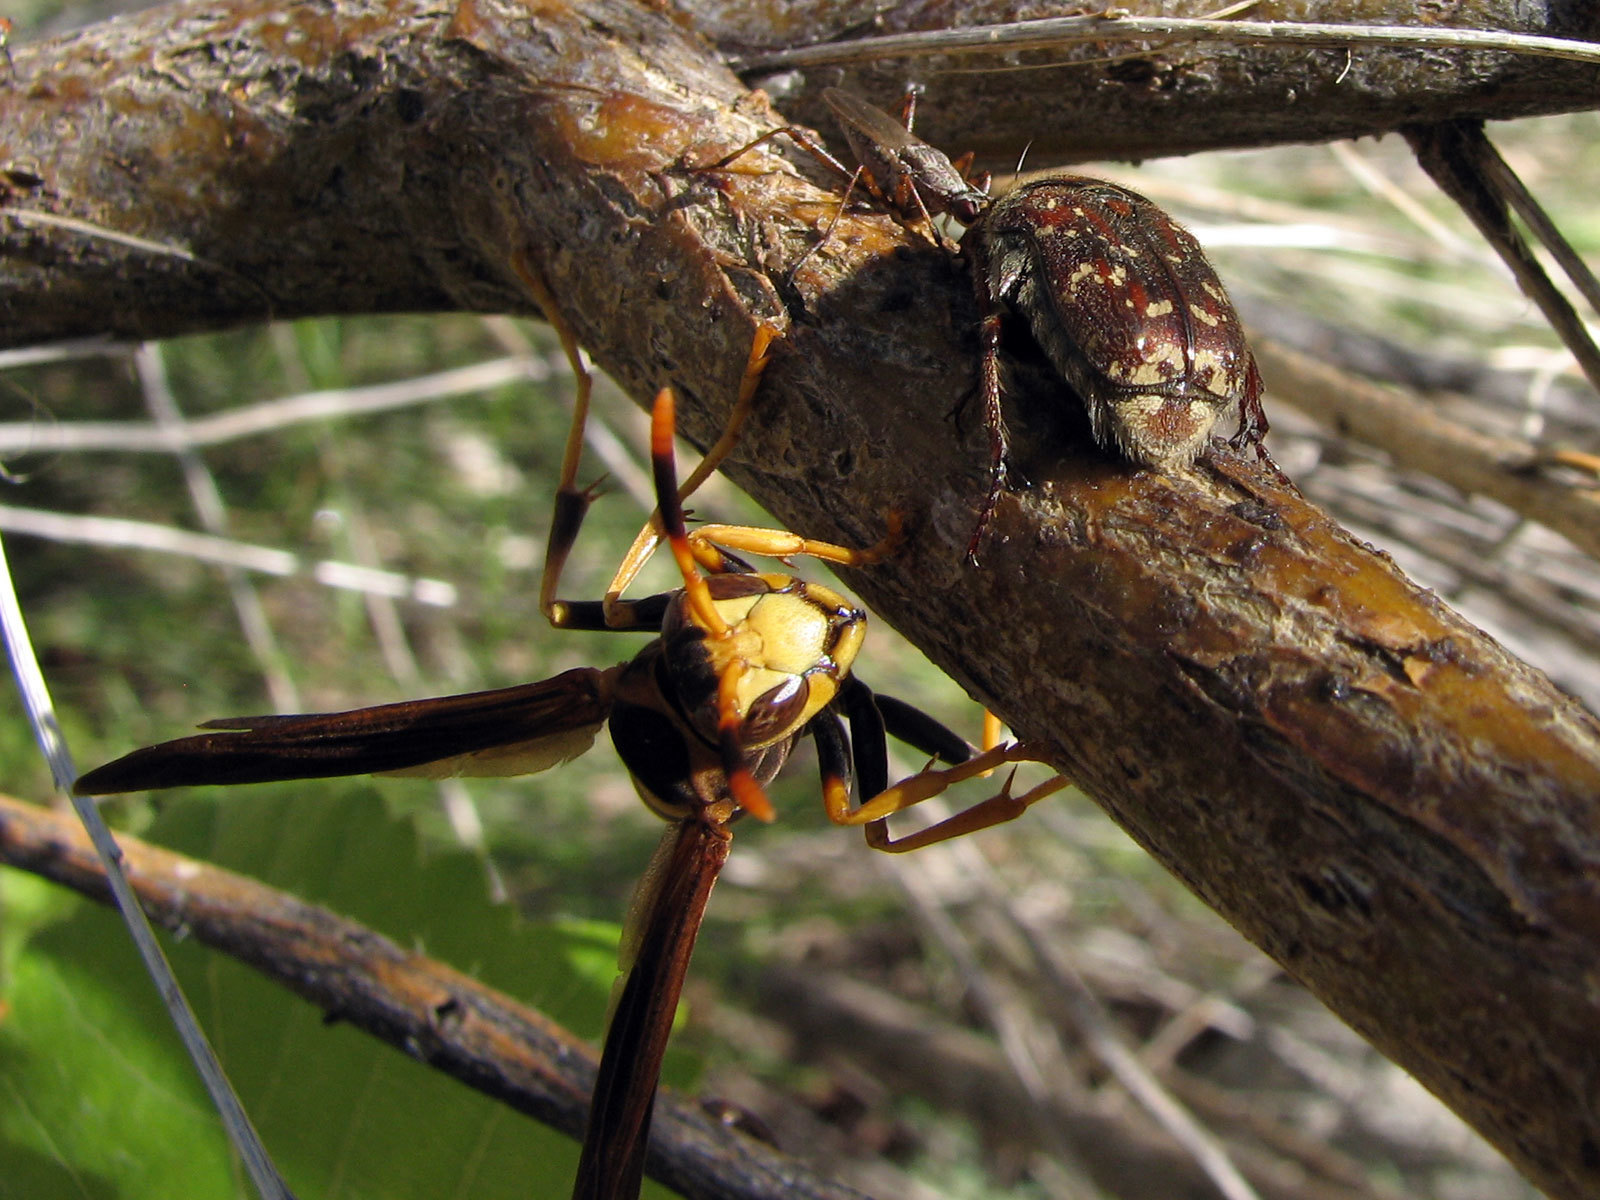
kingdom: Animalia
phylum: Arthropoda
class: Insecta
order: Hymenoptera
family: Eumenidae
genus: Polistes
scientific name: Polistes comanchus
